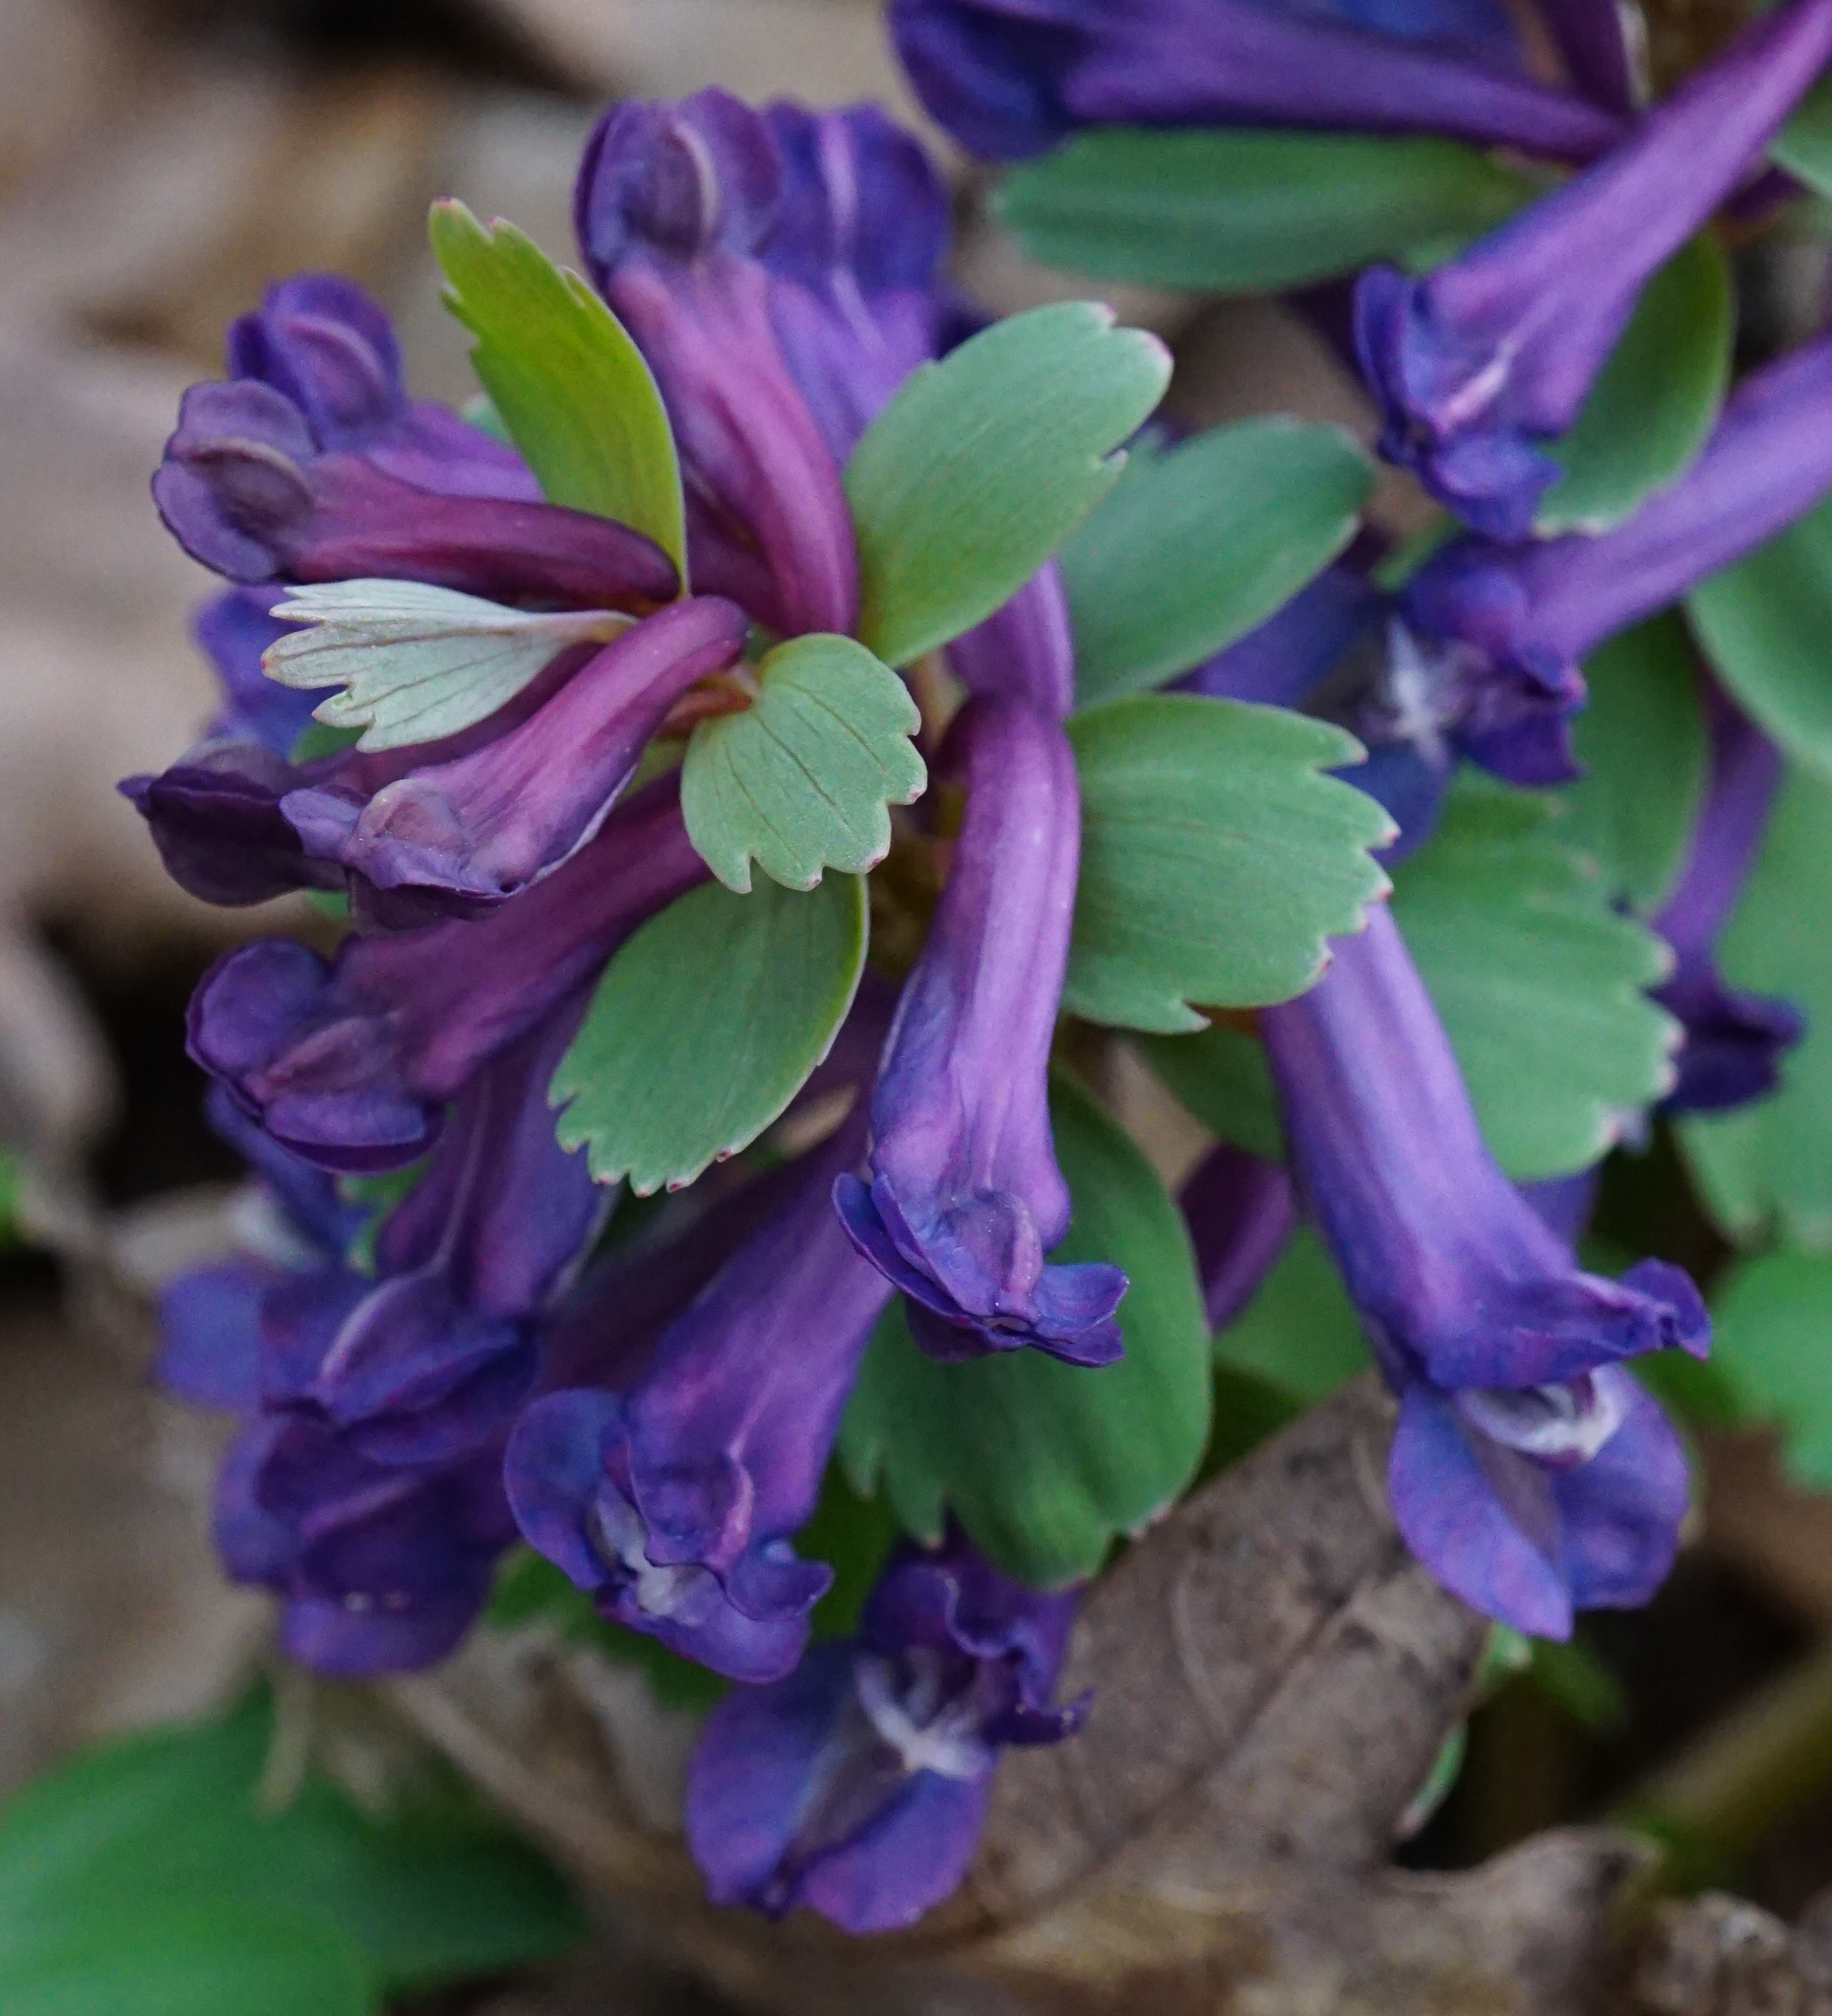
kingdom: Plantae
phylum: Tracheophyta
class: Magnoliopsida
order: Ranunculales
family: Papaveraceae
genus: Corydalis
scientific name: Corydalis solida
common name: Bird-in-a-bush
